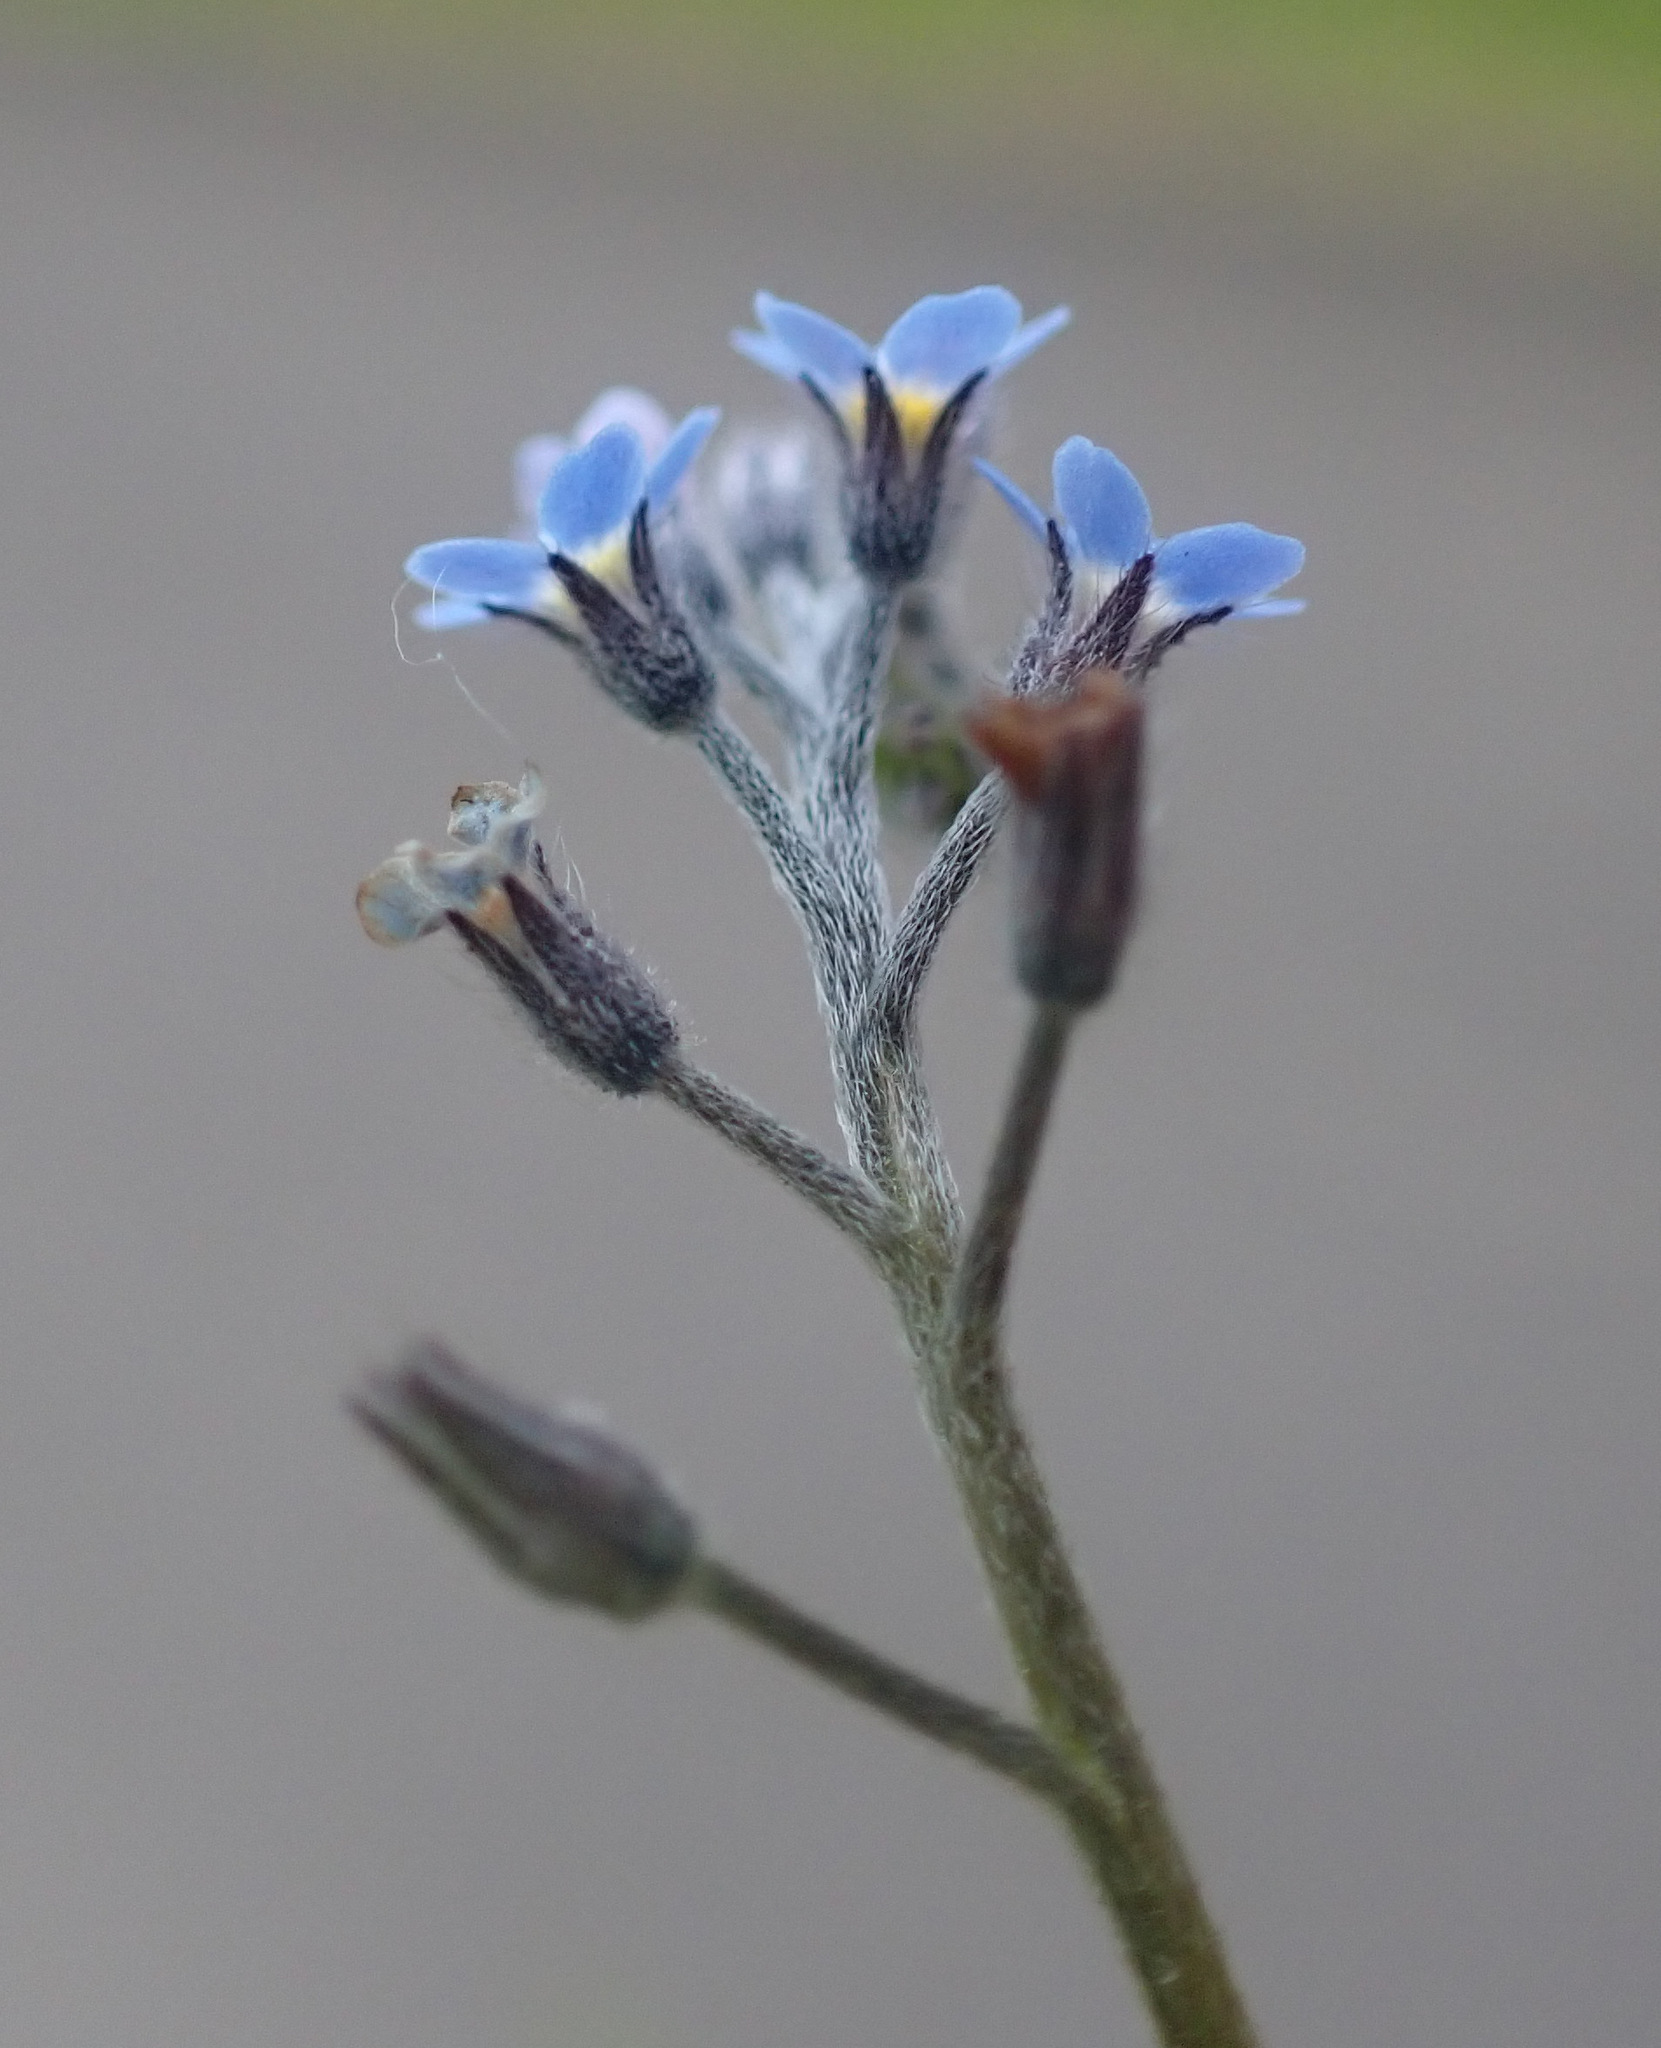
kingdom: Plantae
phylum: Tracheophyta
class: Magnoliopsida
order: Boraginales
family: Boraginaceae
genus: Myosotis
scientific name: Myosotis arvensis
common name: Field forget-me-not
